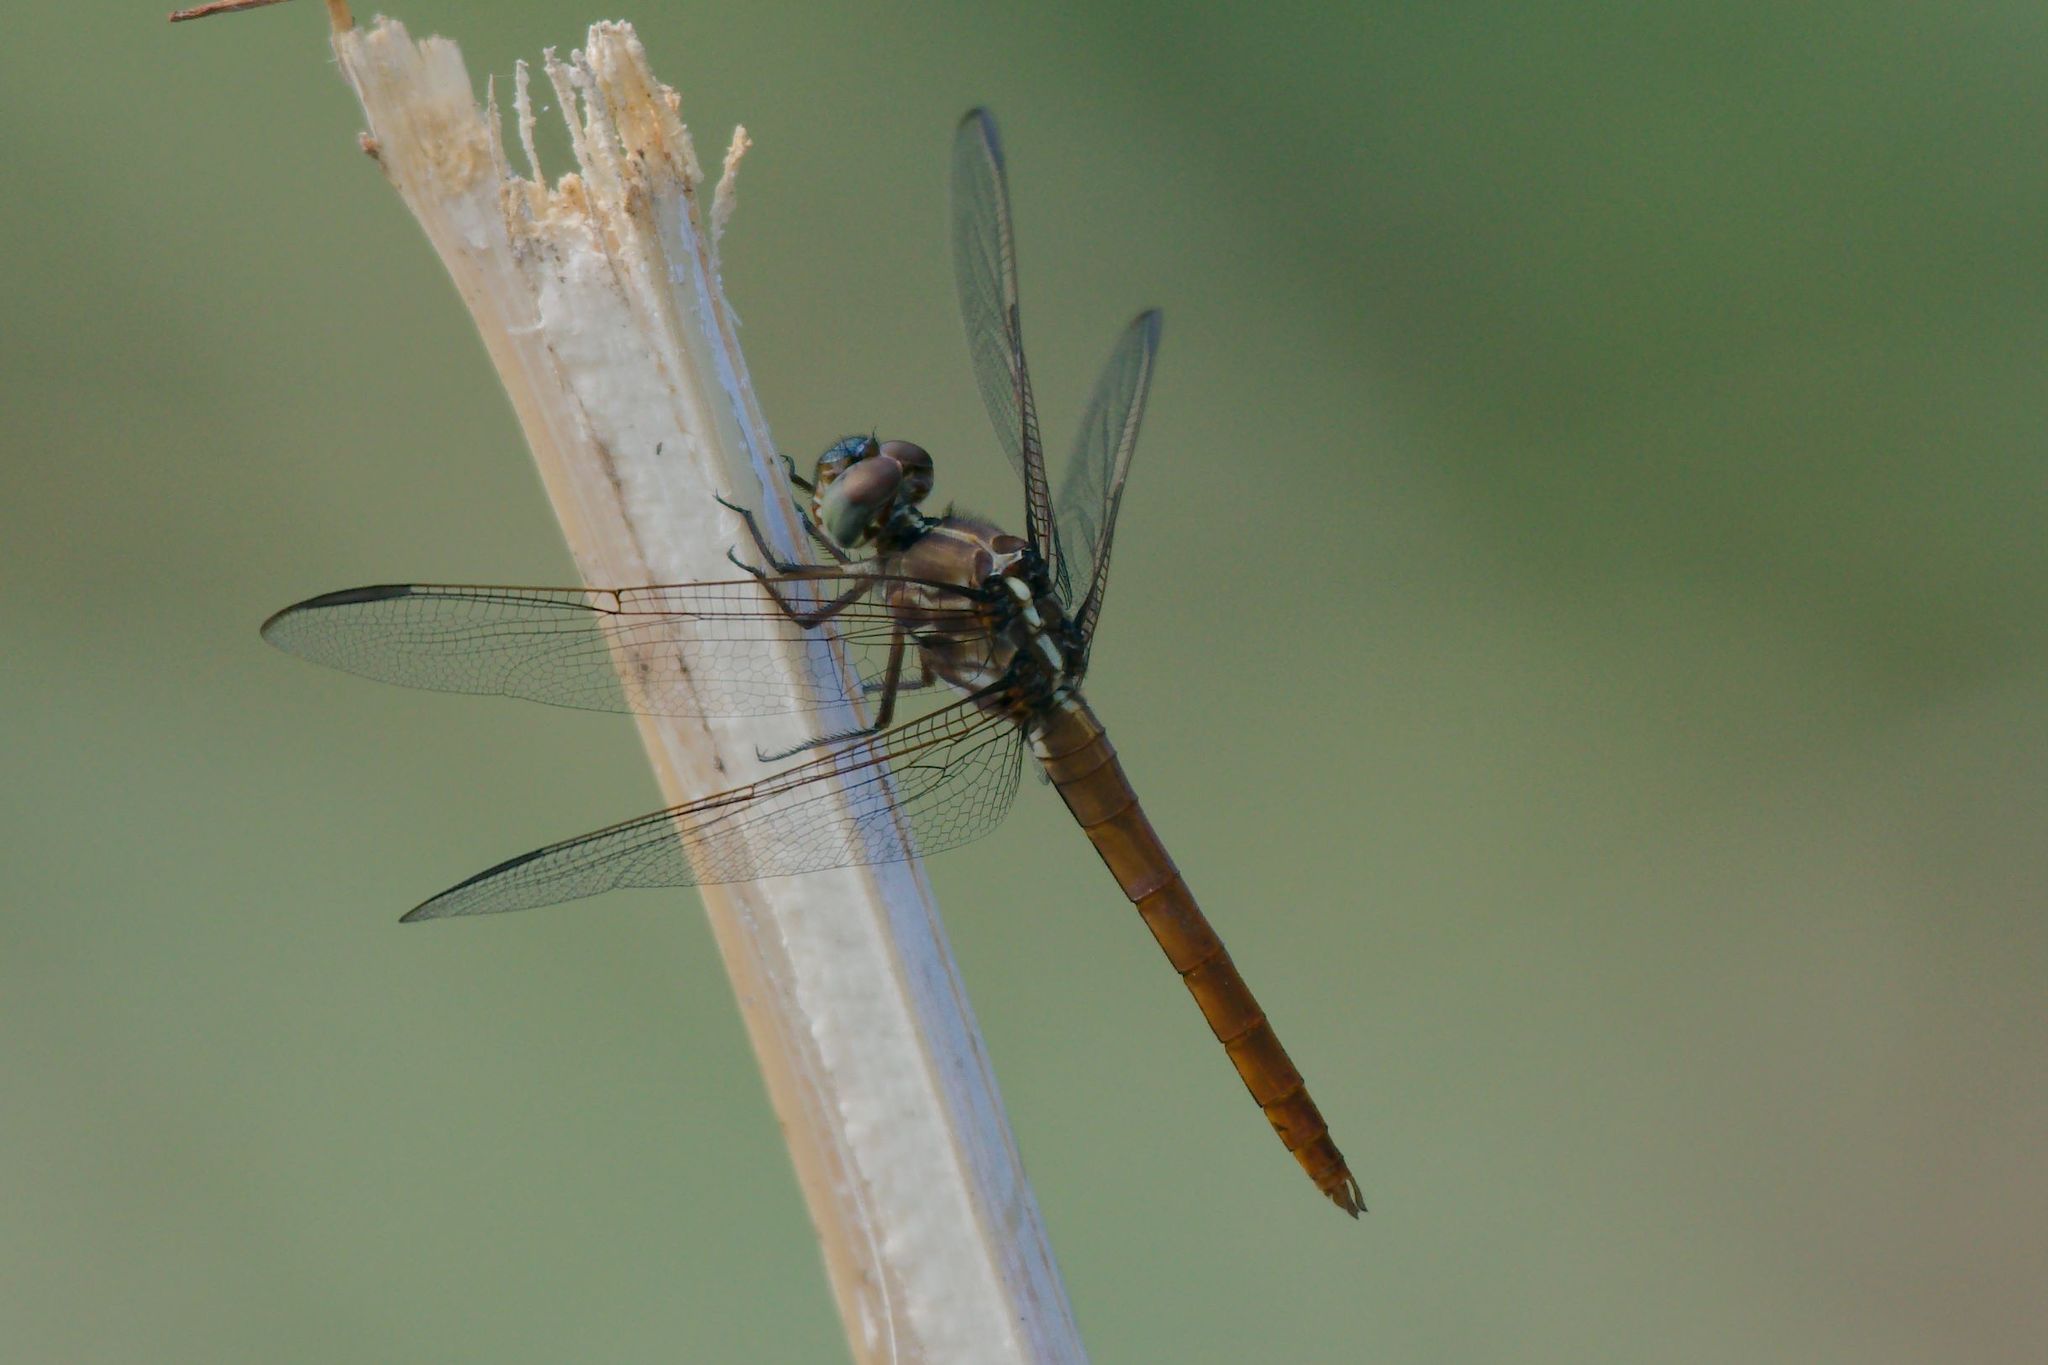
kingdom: Animalia
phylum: Arthropoda
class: Insecta
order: Odonata
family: Libellulidae
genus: Orthemis
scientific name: Orthemis ferruginea
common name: Roseate skimmer
